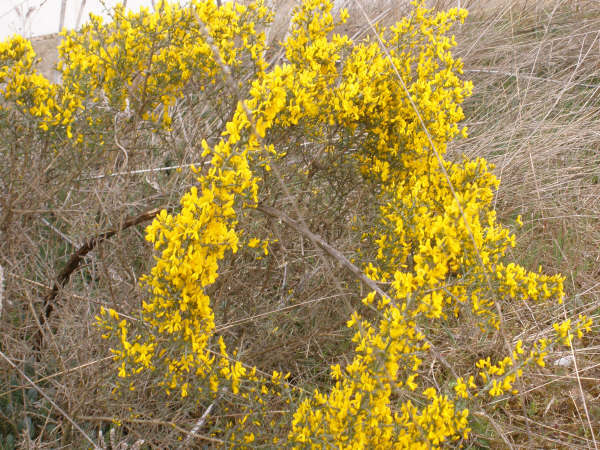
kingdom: Plantae
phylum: Tracheophyta
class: Magnoliopsida
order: Fabales
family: Fabaceae
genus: Genista
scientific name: Genista scorpius
